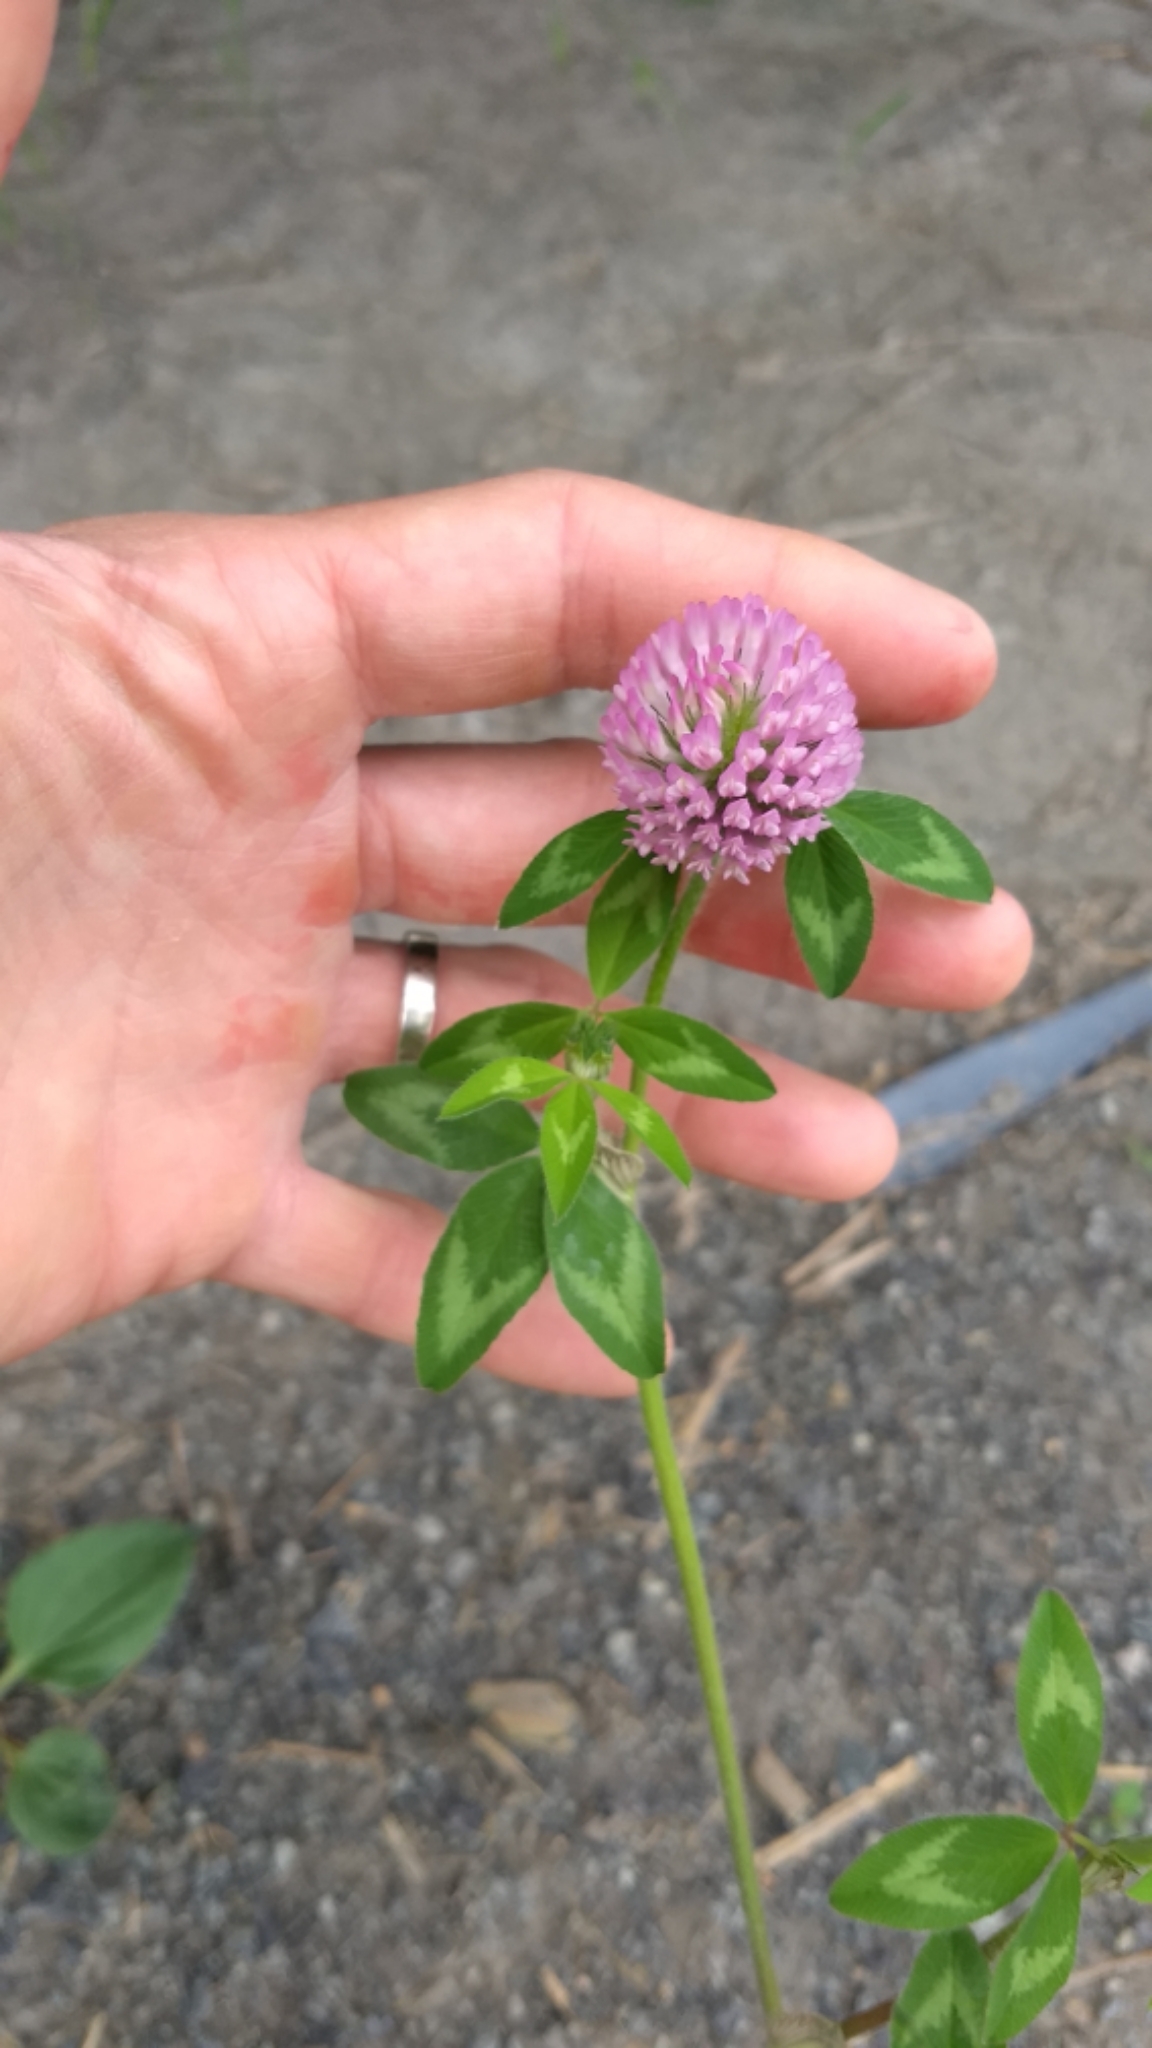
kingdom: Plantae
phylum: Tracheophyta
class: Magnoliopsida
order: Fabales
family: Fabaceae
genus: Trifolium
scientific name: Trifolium pratense
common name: Red clover
